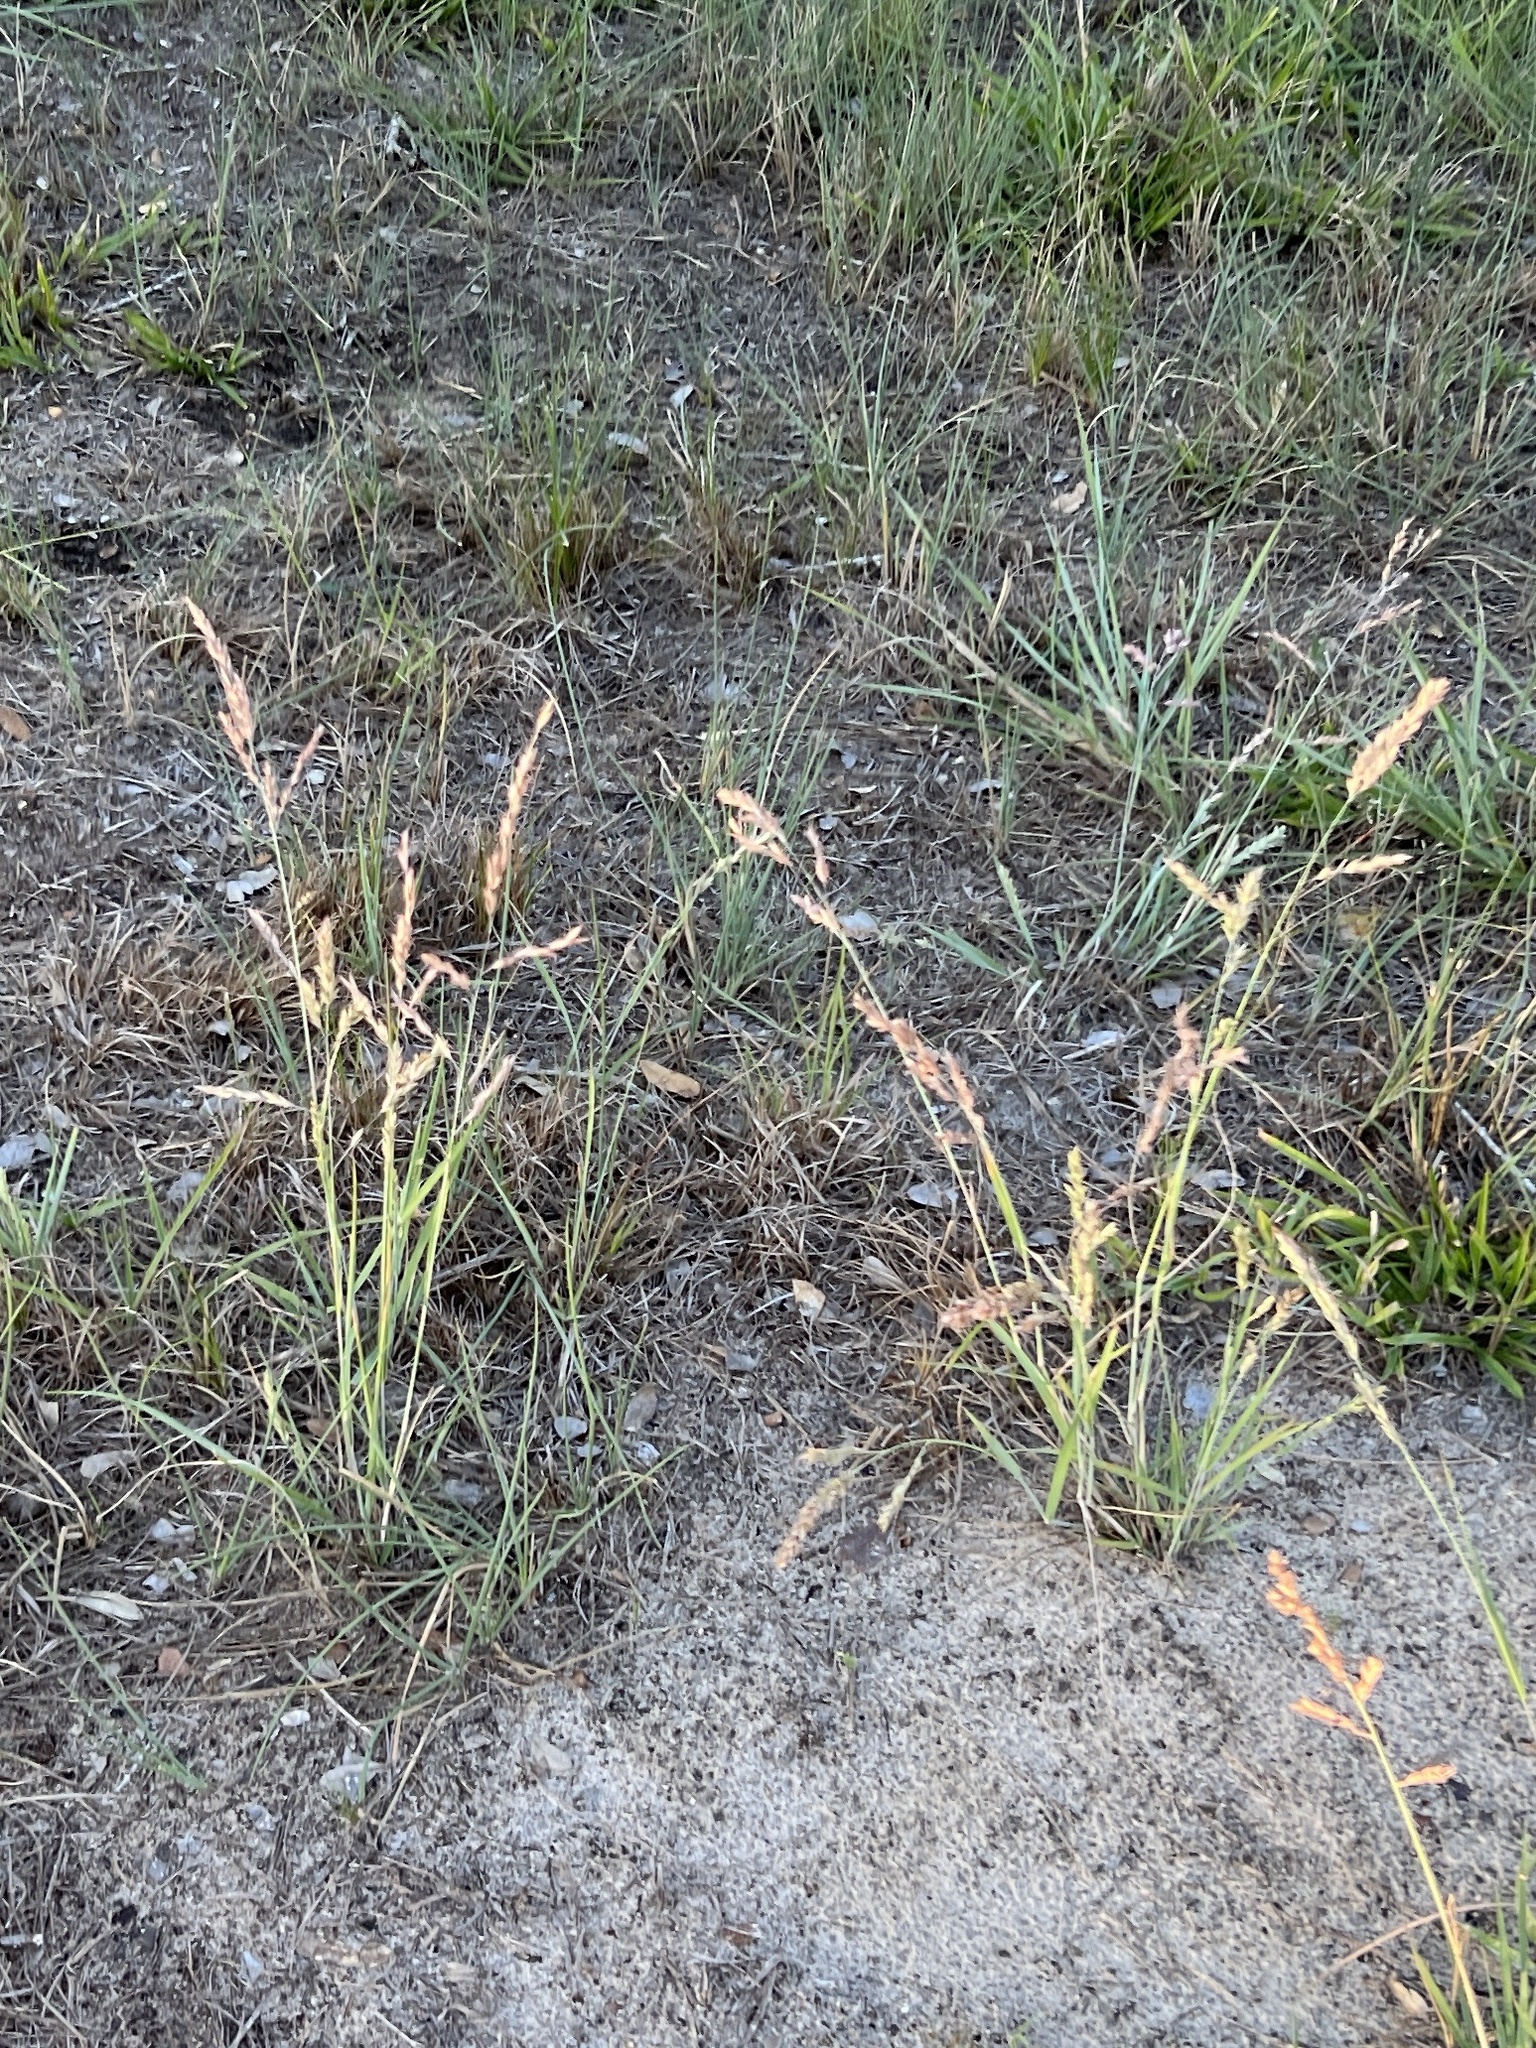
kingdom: Plantae
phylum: Tracheophyta
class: Liliopsida
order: Poales
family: Poaceae
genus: Eragrostis
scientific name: Eragrostis secundiflora
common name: Red love grass
